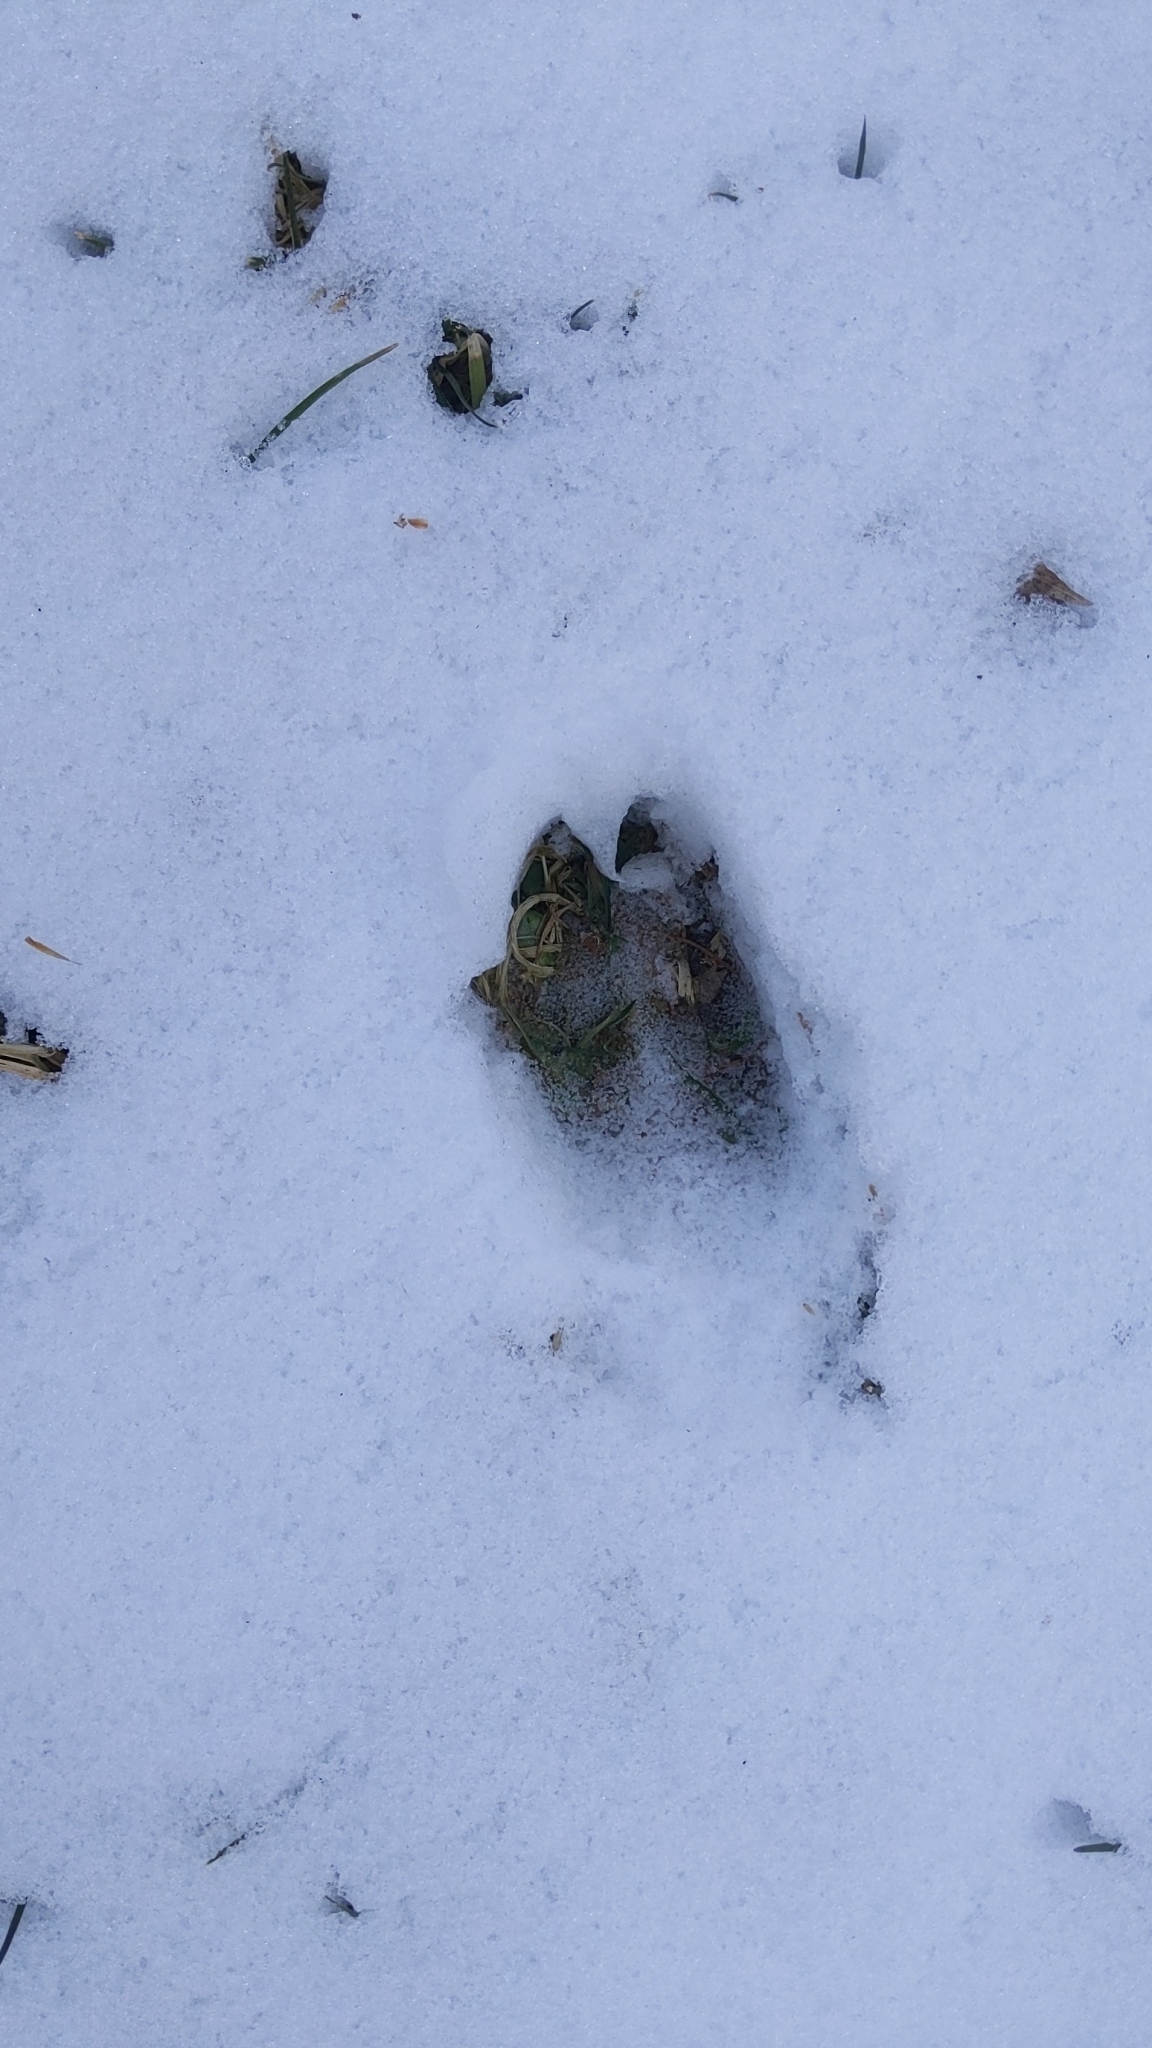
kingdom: Animalia
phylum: Chordata
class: Mammalia
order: Artiodactyla
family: Cervidae
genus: Odocoileus
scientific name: Odocoileus virginianus
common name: White-tailed deer
